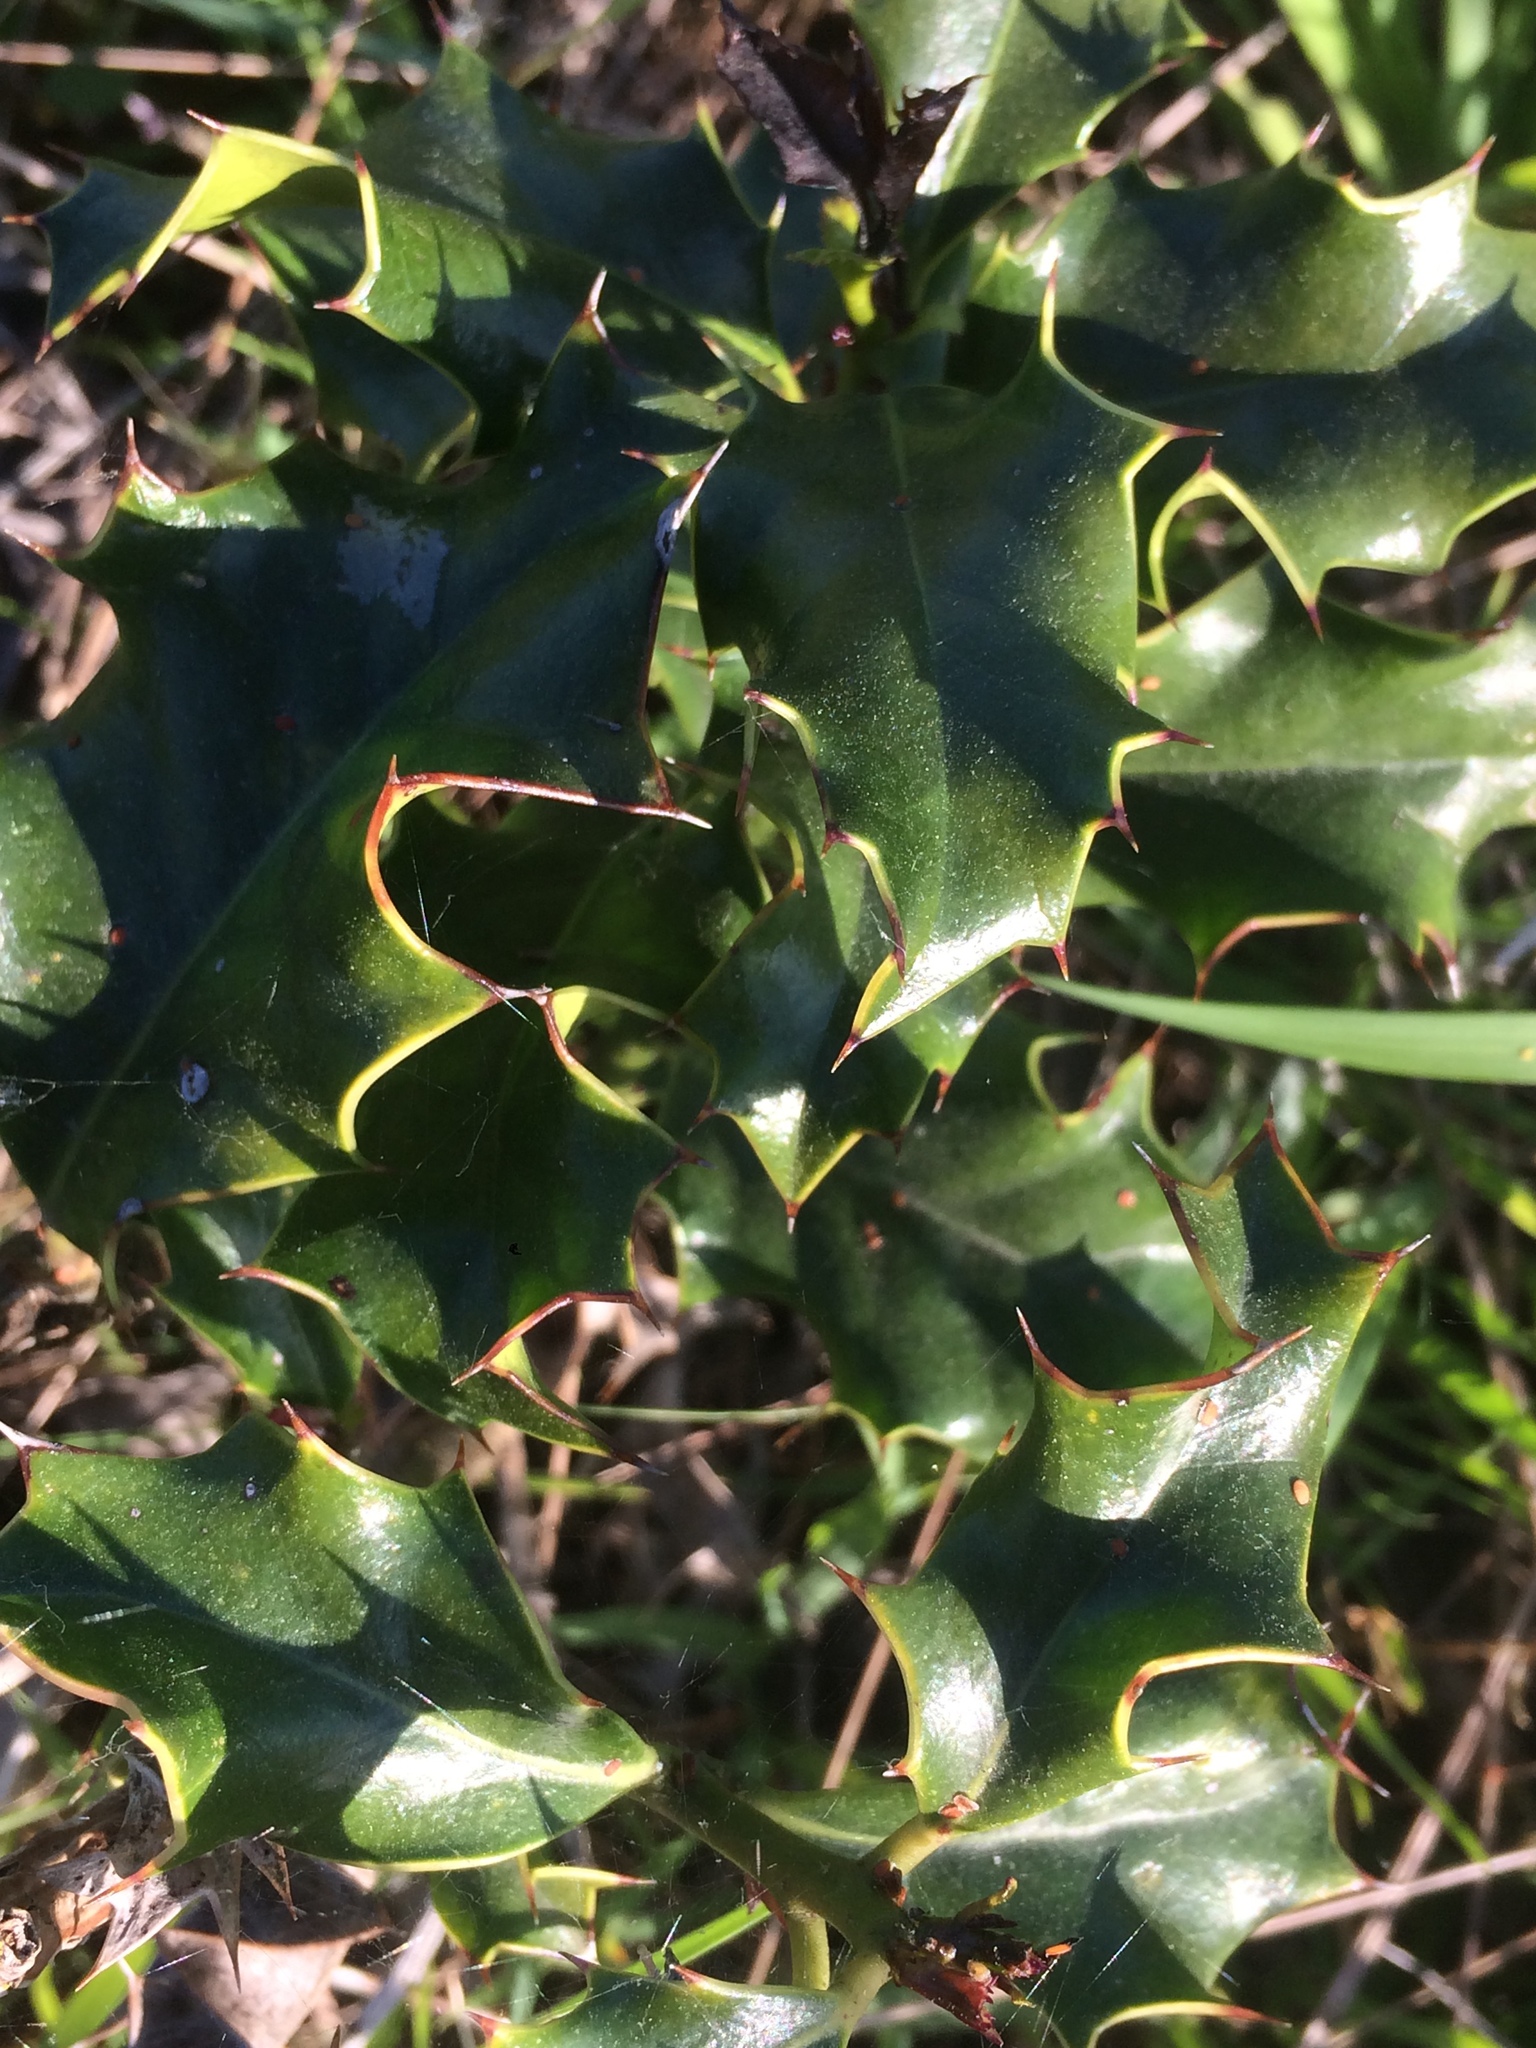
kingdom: Plantae
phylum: Tracheophyta
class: Magnoliopsida
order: Aquifoliales
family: Aquifoliaceae
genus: Ilex
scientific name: Ilex aquifolium
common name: English holly
